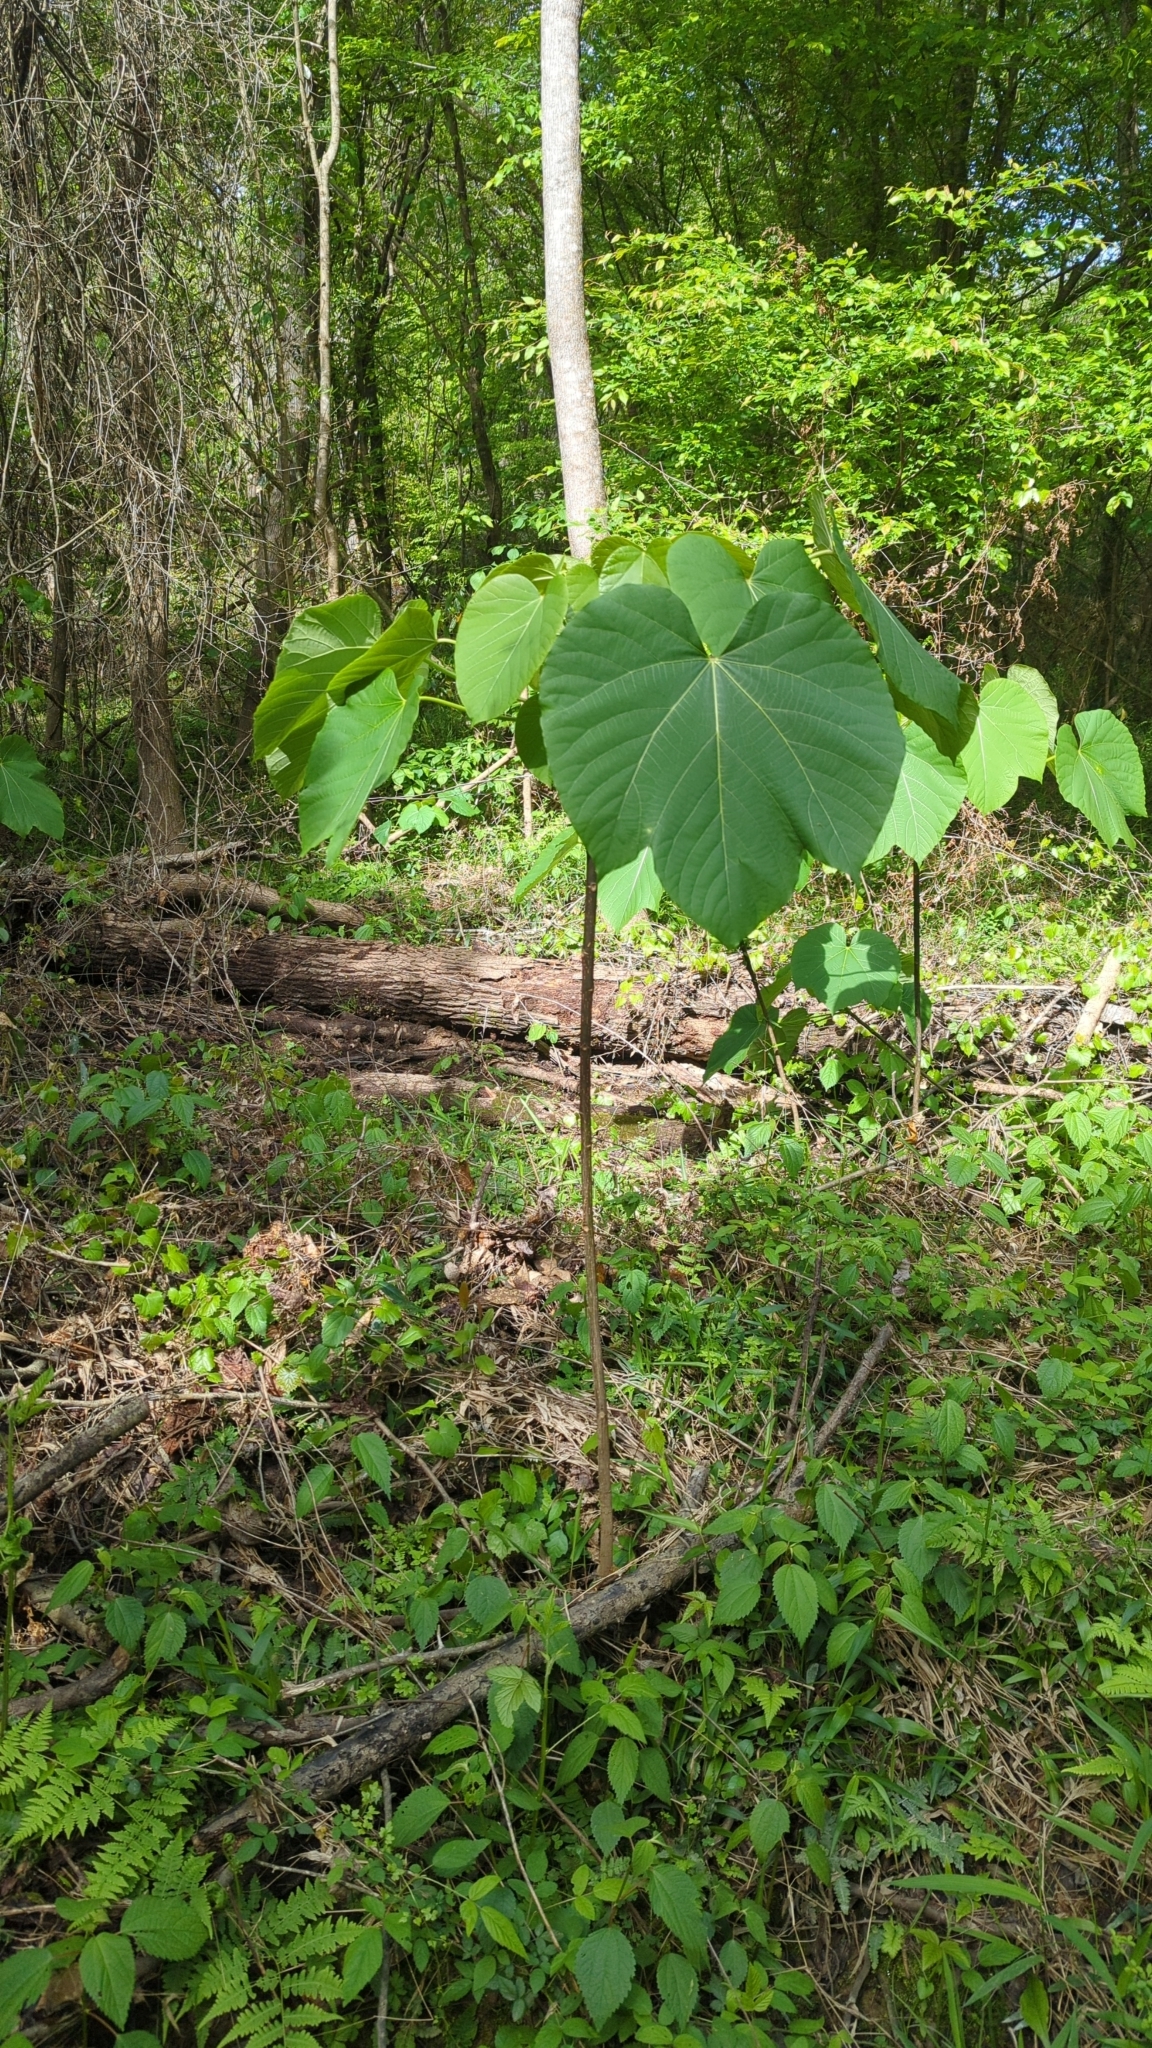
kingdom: Plantae
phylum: Tracheophyta
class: Magnoliopsida
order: Malpighiales
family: Euphorbiaceae
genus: Vernicia
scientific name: Vernicia fordii
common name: Tungoil tree
